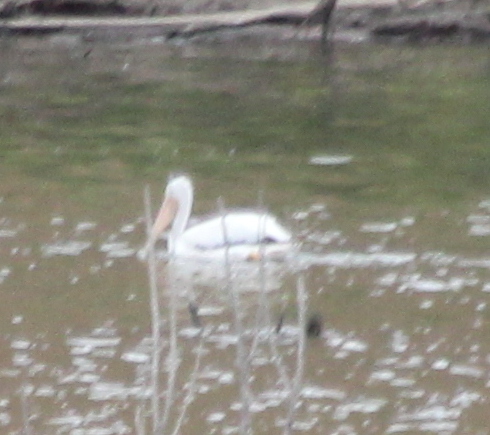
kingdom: Animalia
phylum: Chordata
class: Aves
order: Pelecaniformes
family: Pelecanidae
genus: Pelecanus
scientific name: Pelecanus erythrorhynchos
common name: American white pelican
